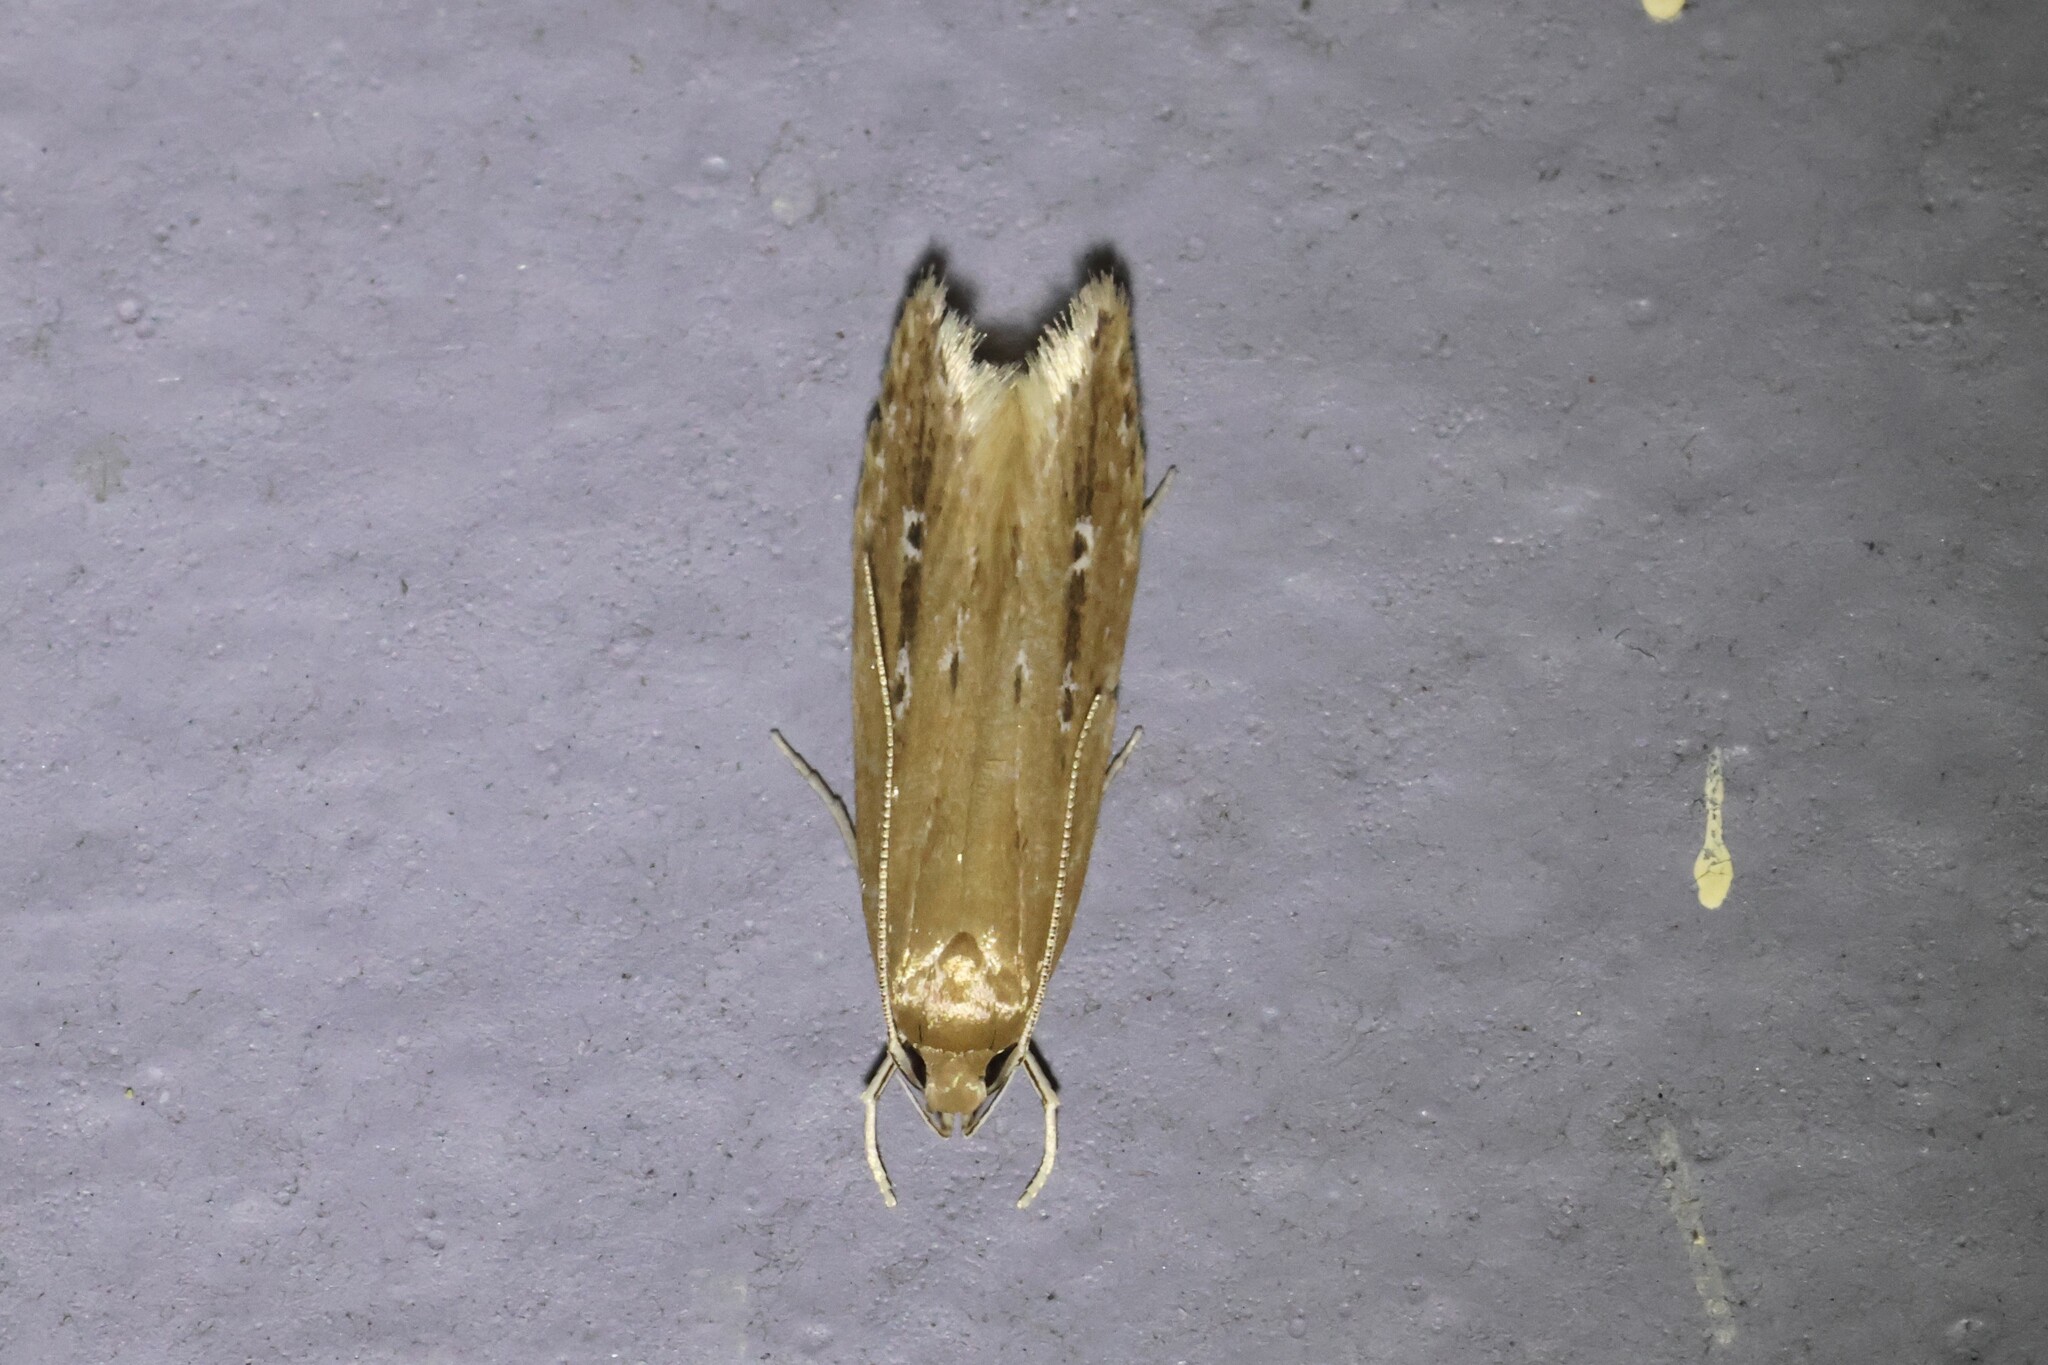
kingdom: Animalia
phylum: Arthropoda
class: Insecta
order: Lepidoptera
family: Cosmopterigidae
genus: Limnaecia
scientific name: Limnaecia phragmitella
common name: Bulrush cosmet
